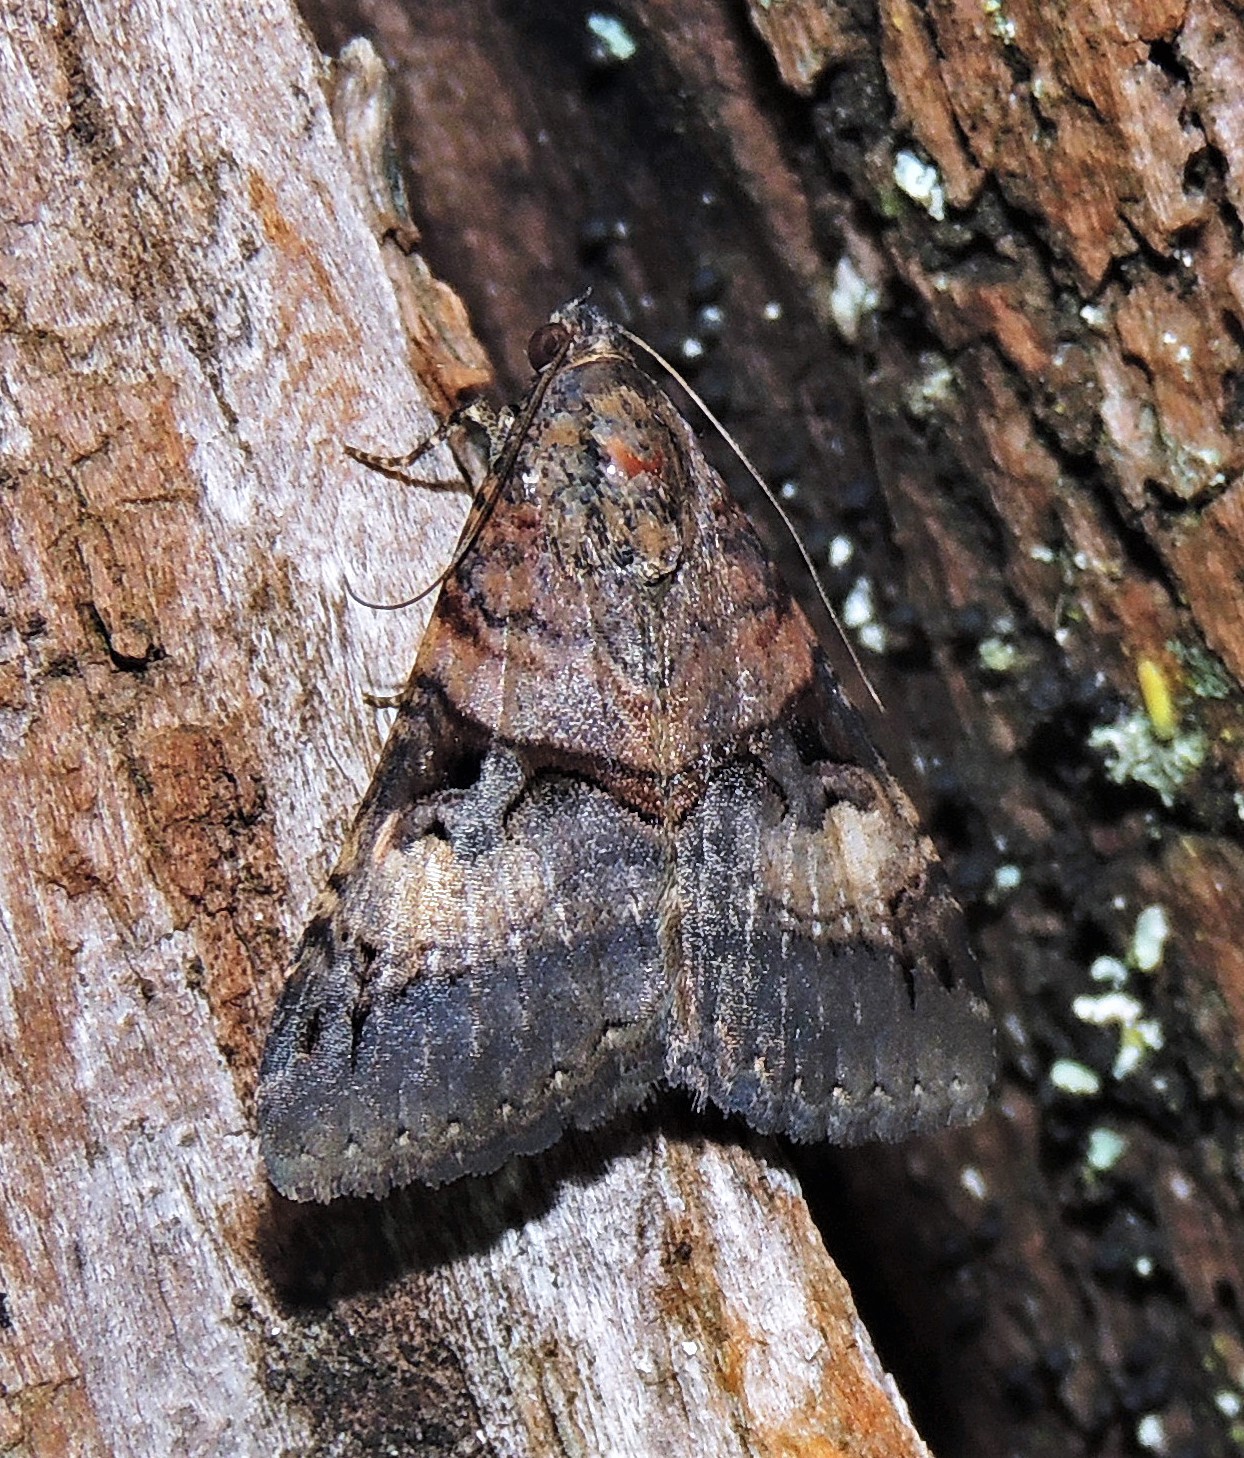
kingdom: Animalia
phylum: Arthropoda
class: Insecta
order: Lepidoptera
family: Erebidae
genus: Melipotis
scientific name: Melipotis nigrobasis
